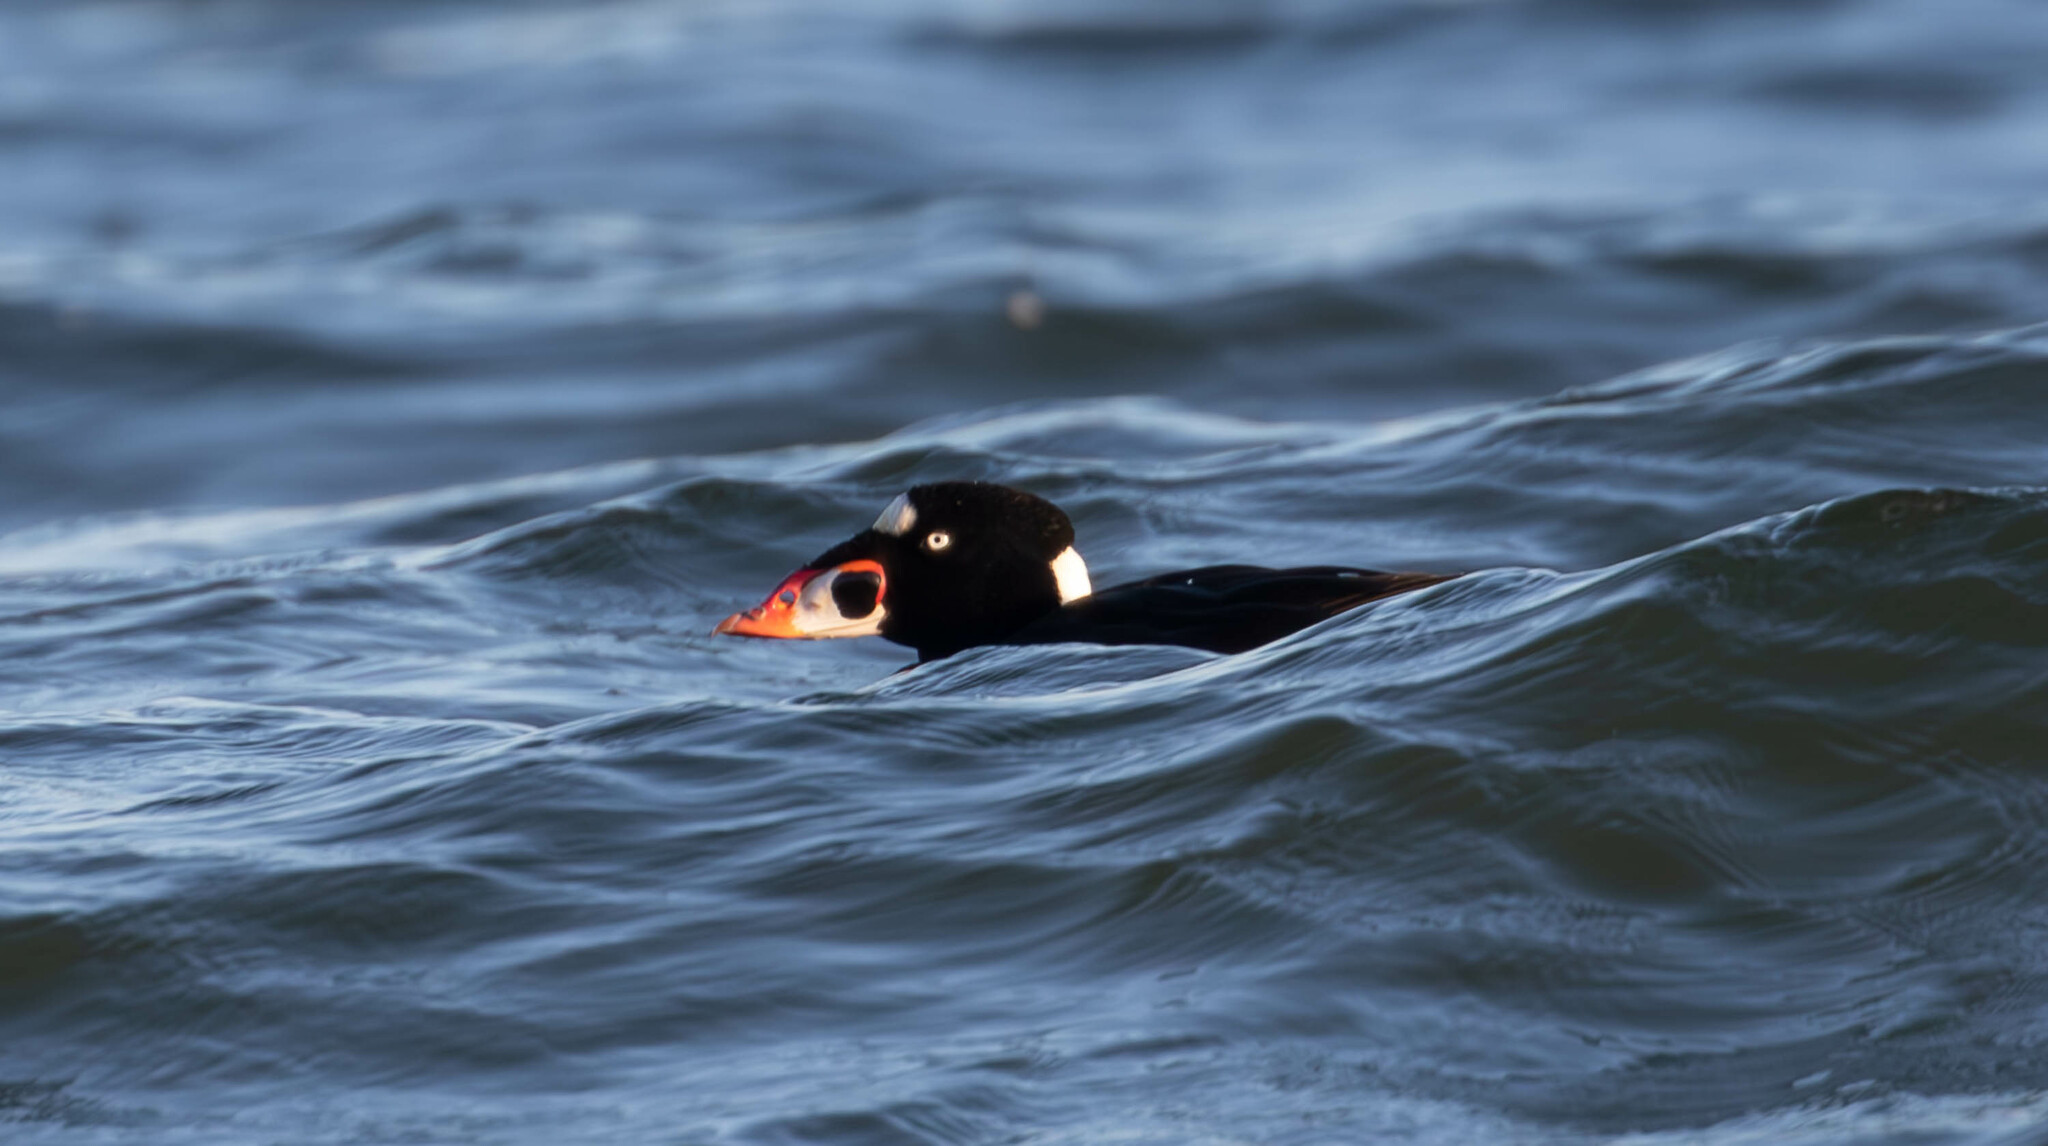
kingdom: Animalia
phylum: Chordata
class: Aves
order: Anseriformes
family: Anatidae
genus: Melanitta
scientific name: Melanitta perspicillata
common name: Surf scoter
